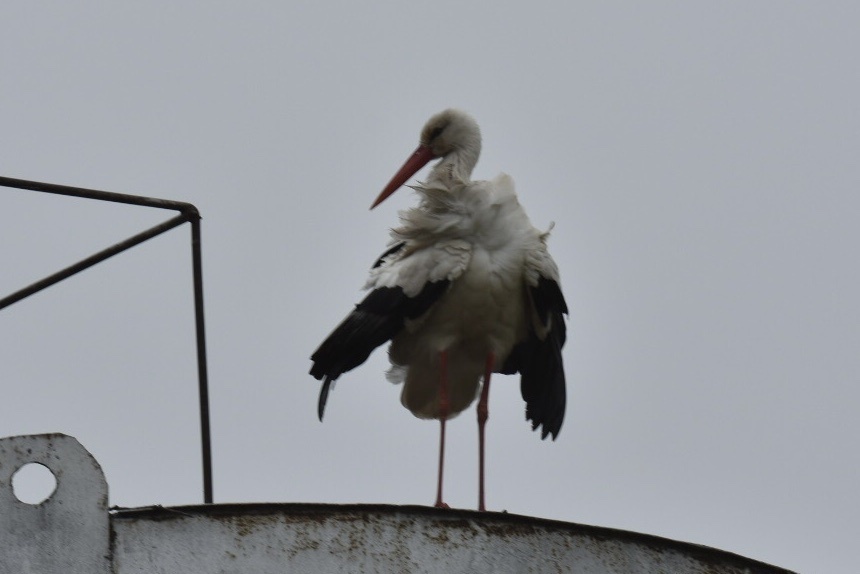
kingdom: Animalia
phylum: Chordata
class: Aves
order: Ciconiiformes
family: Ciconiidae
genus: Ciconia
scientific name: Ciconia ciconia
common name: White stork
